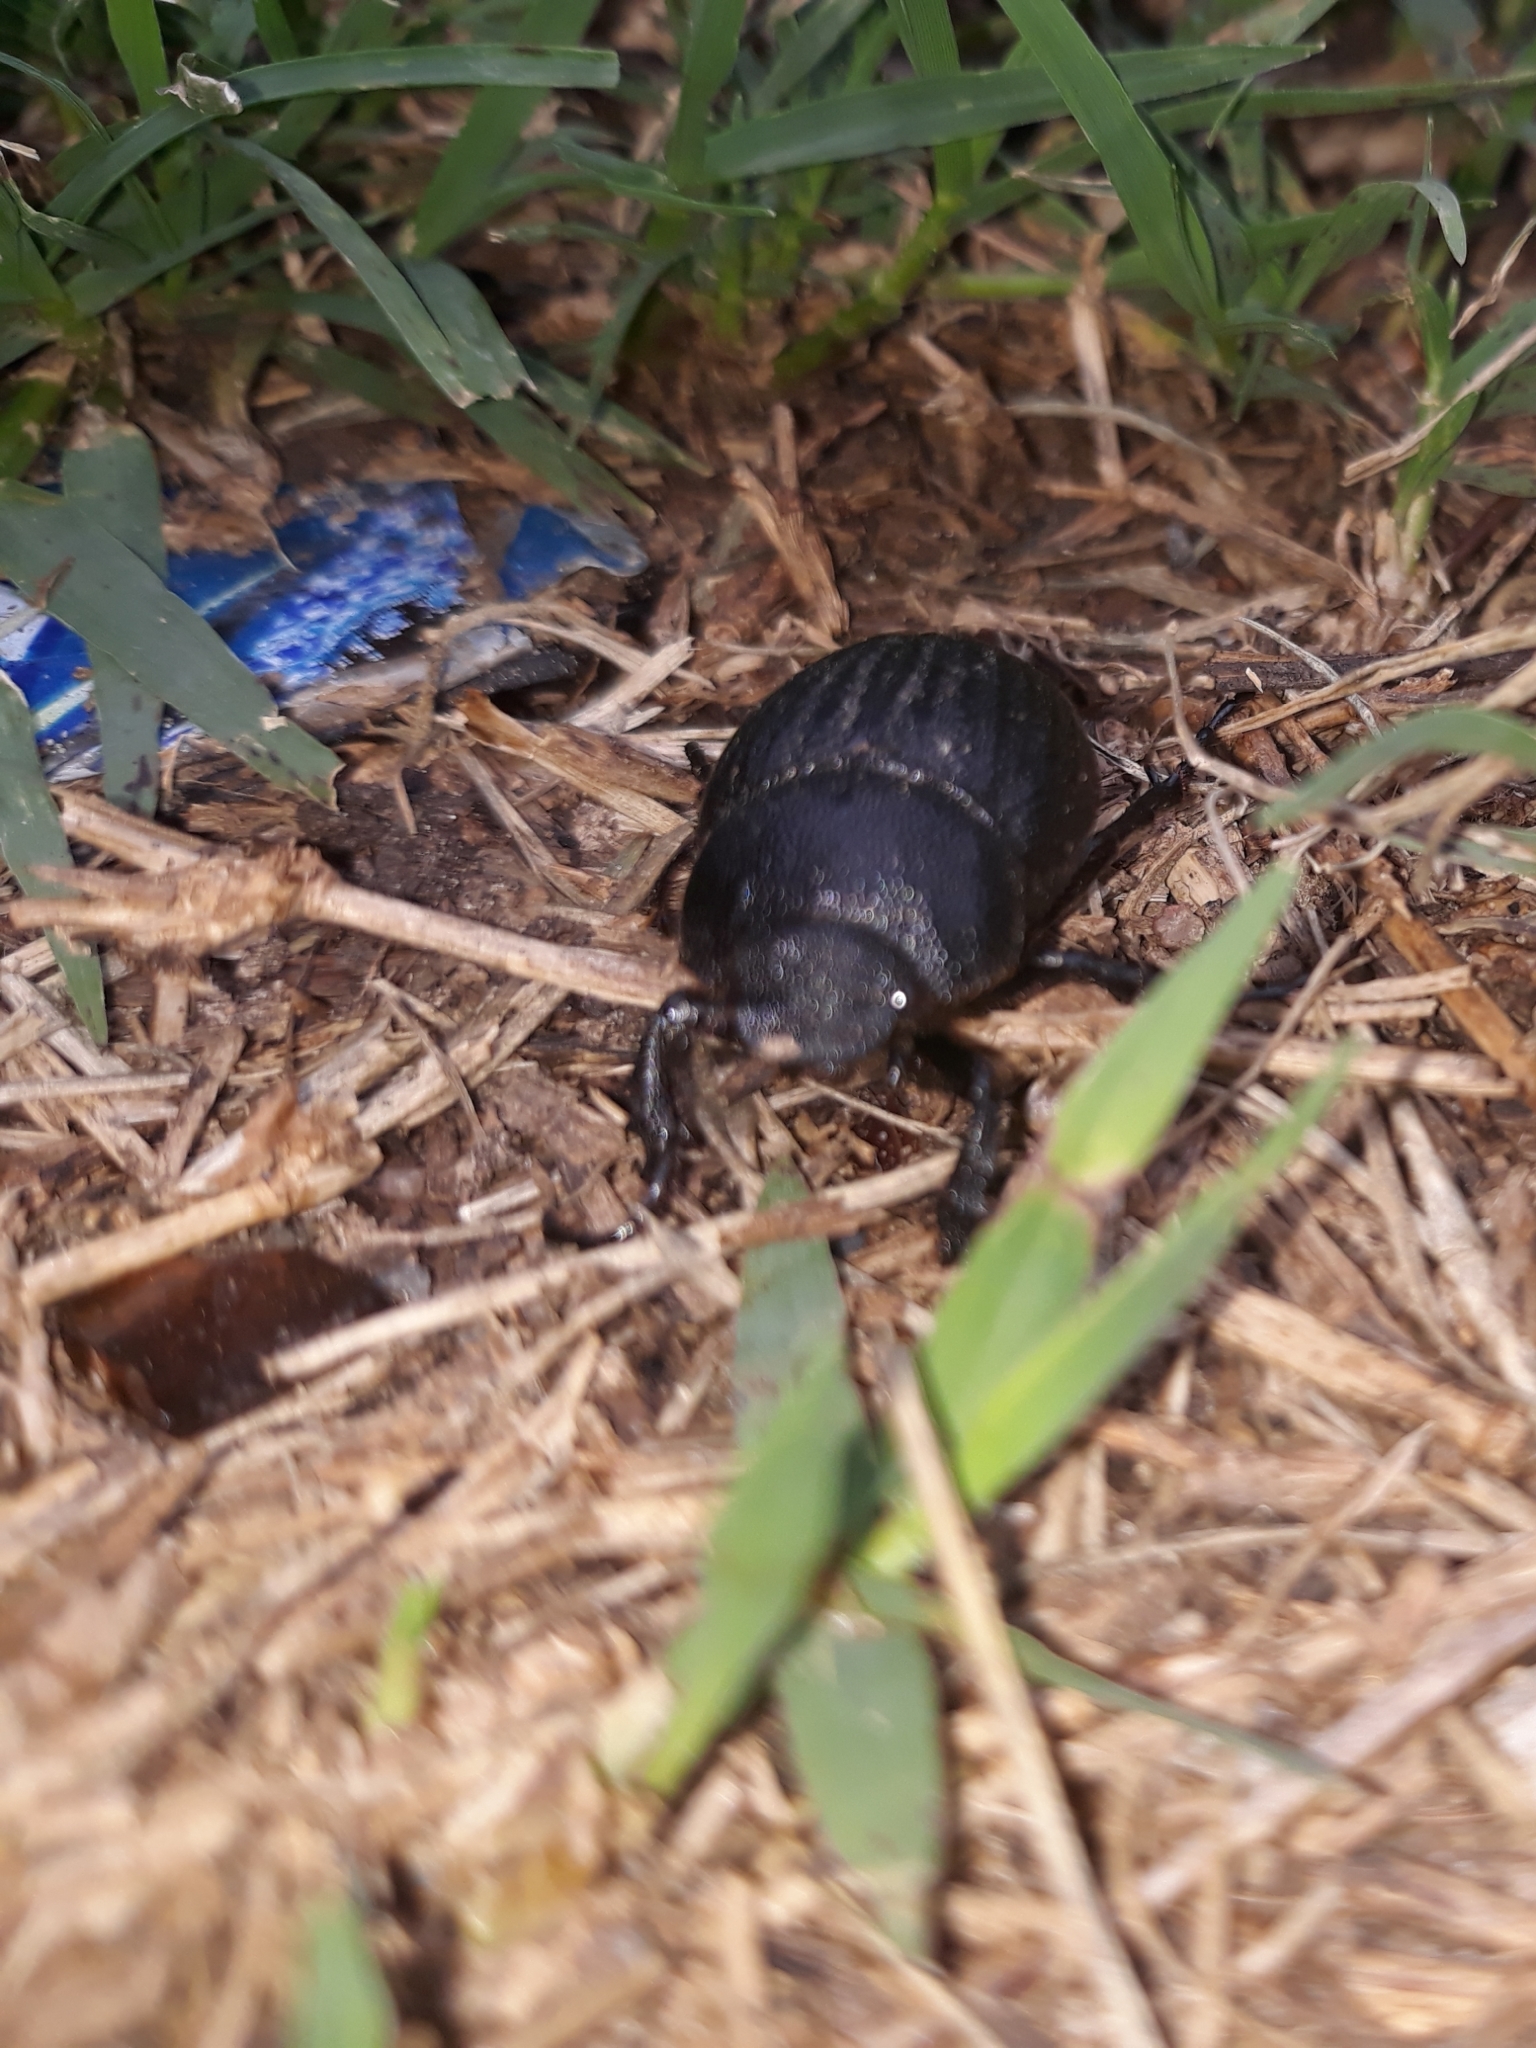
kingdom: Animalia
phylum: Arthropoda
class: Insecta
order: Coleoptera
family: Scarabaeidae
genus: Phyllophaga
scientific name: Phyllophaga cribrosa
